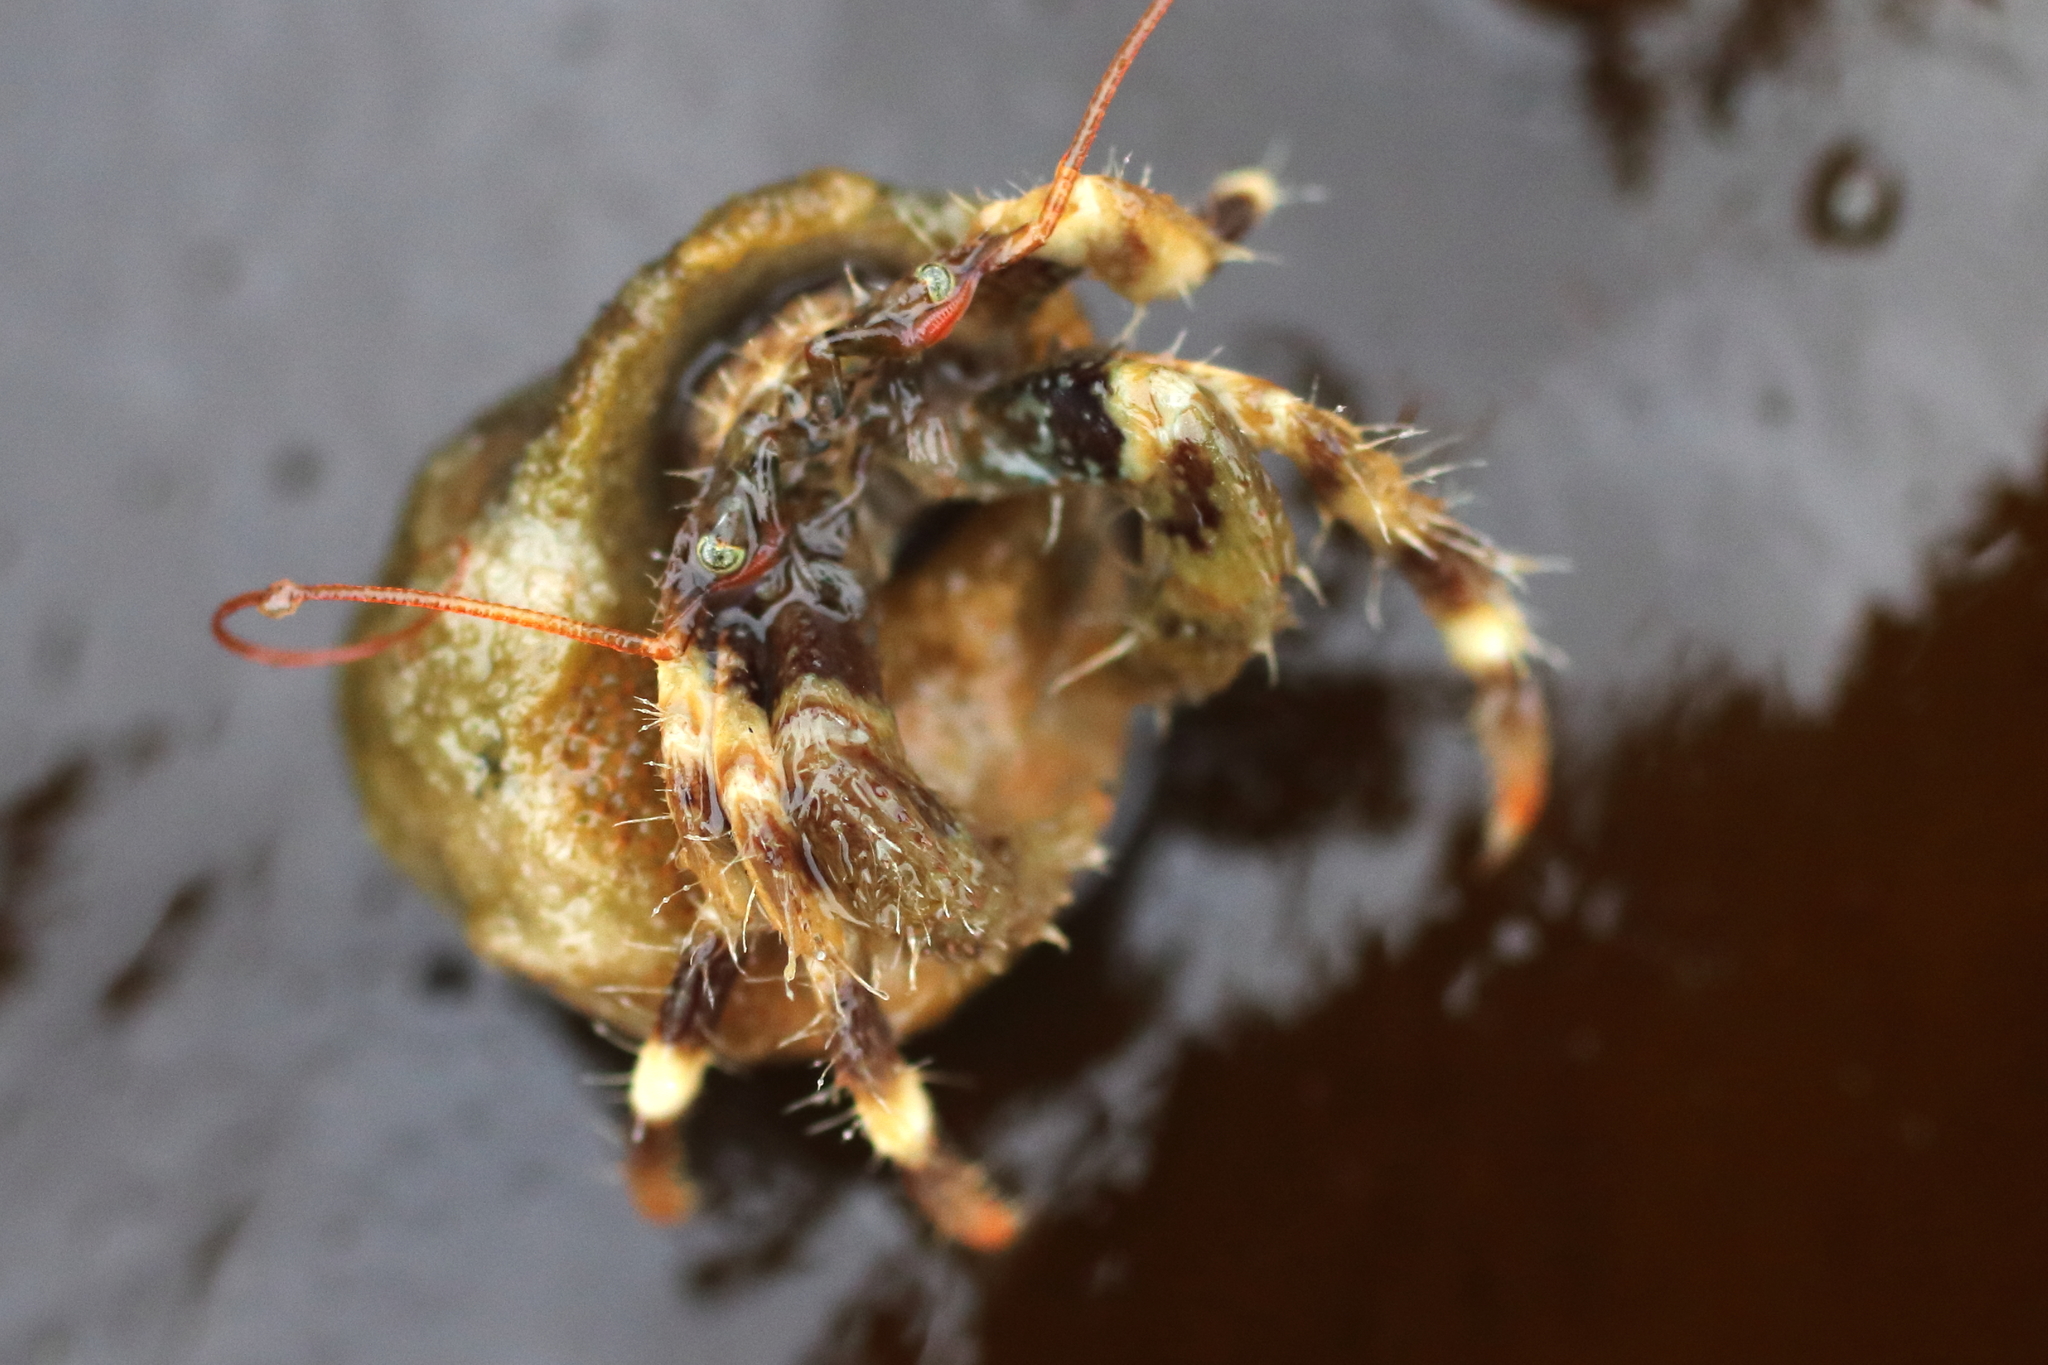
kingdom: Animalia
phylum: Arthropoda
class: Malacostraca
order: Decapoda
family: Paguridae
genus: Pagurus
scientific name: Pagurus caurinus
